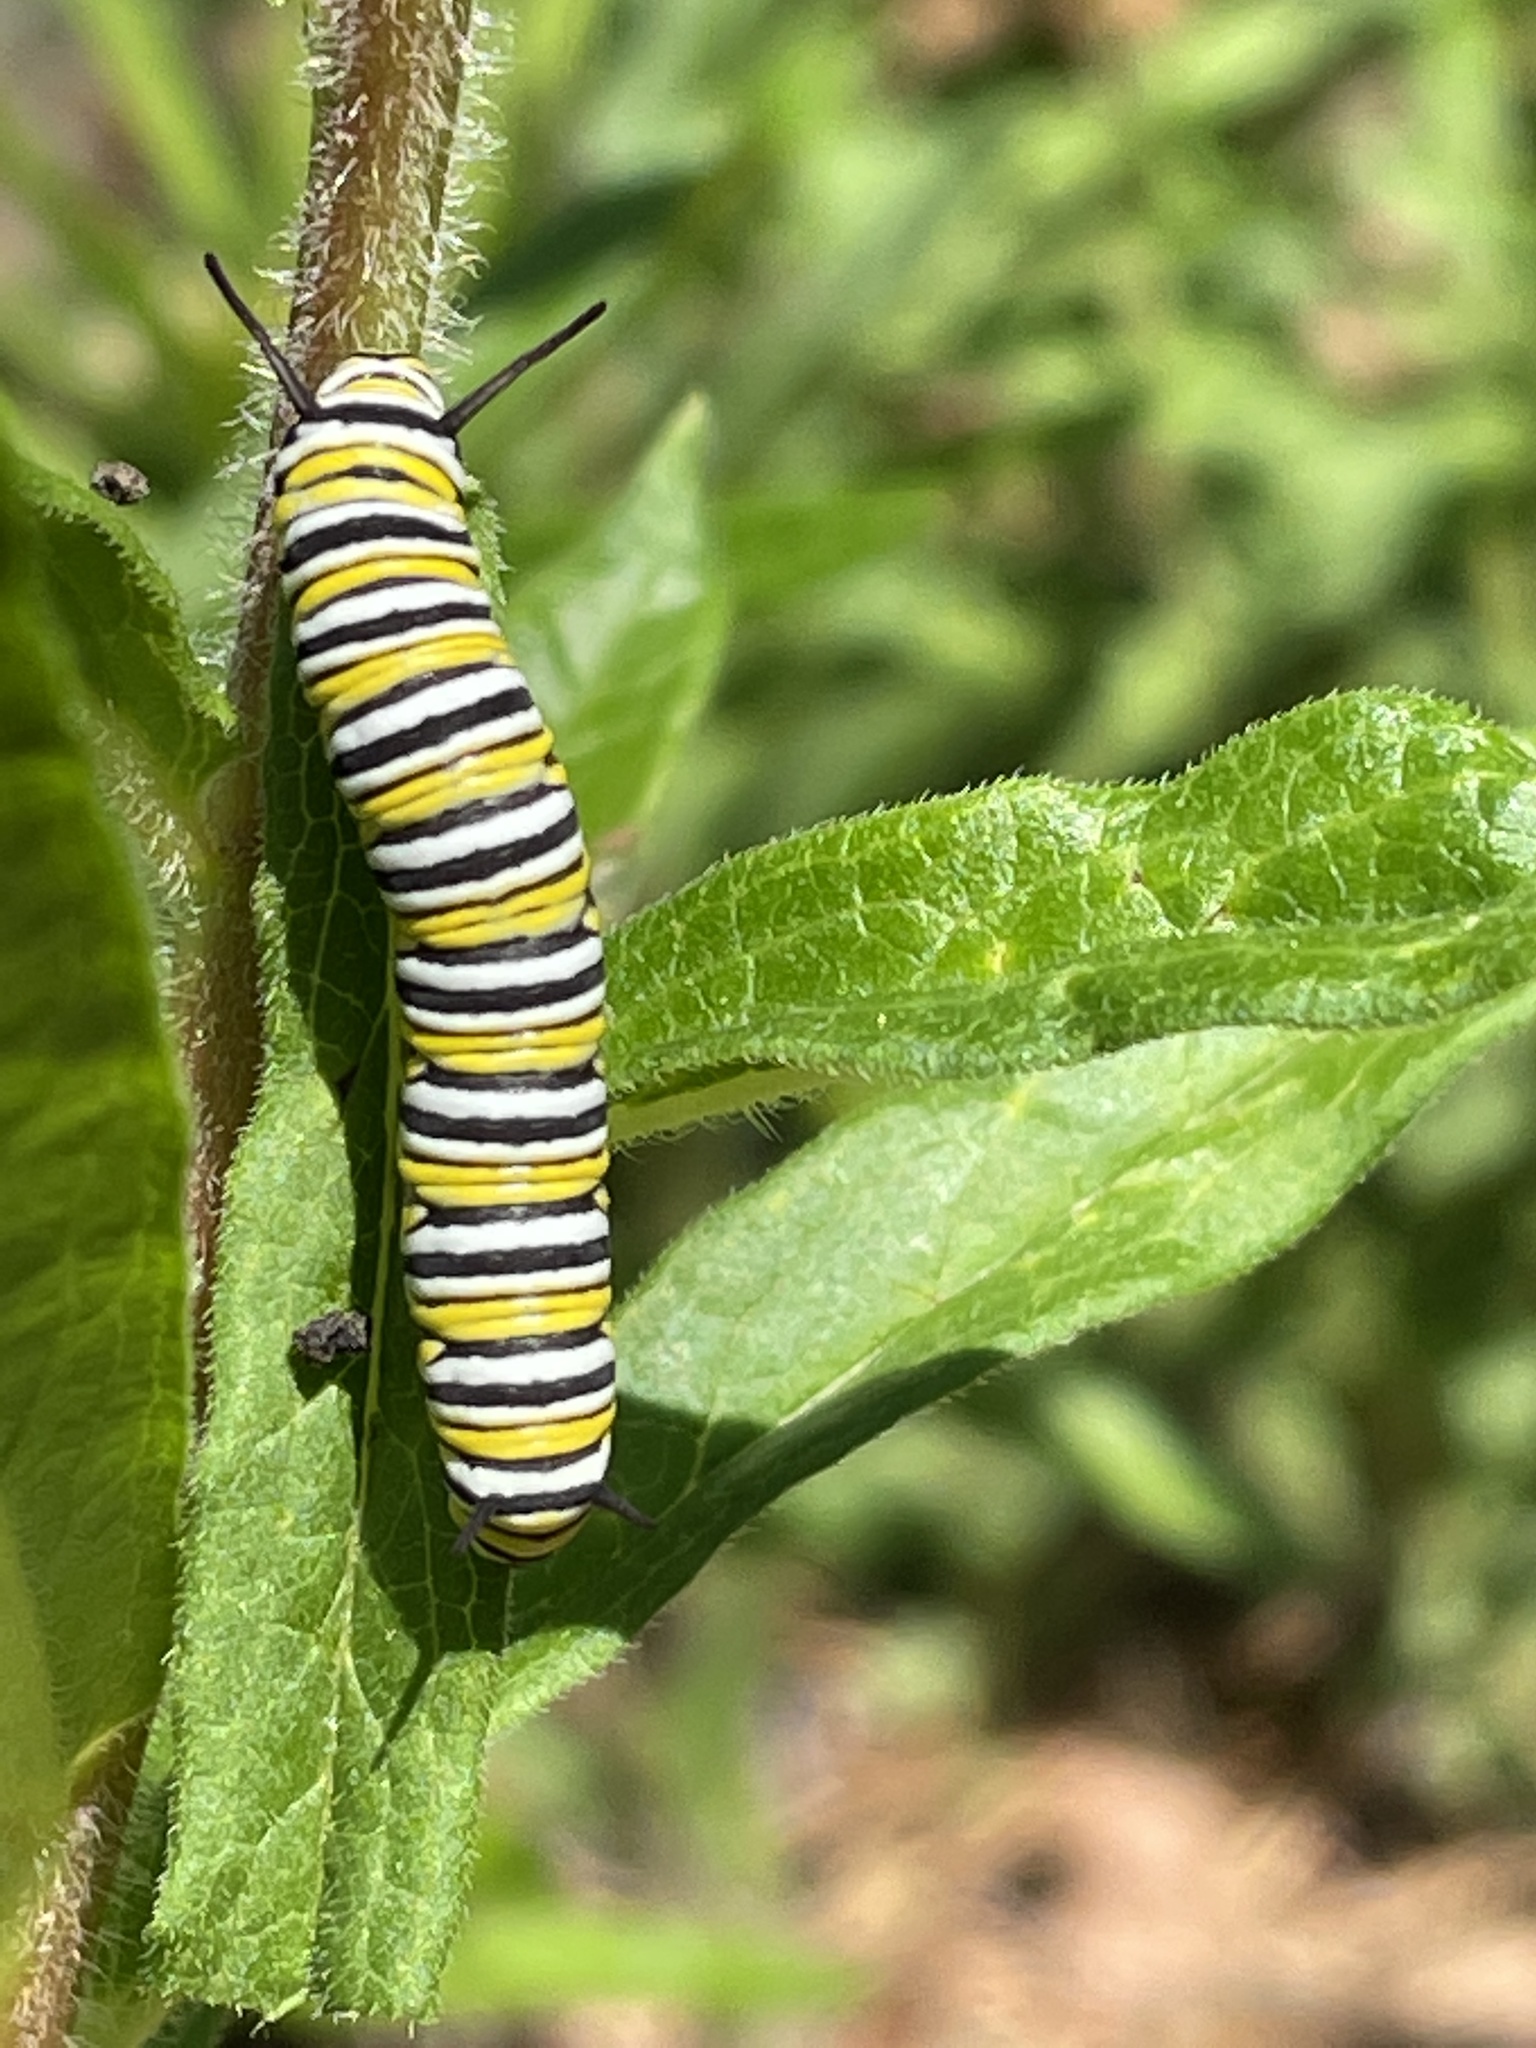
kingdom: Animalia
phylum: Arthropoda
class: Insecta
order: Lepidoptera
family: Nymphalidae
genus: Danaus
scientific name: Danaus plexippus
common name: Monarch
